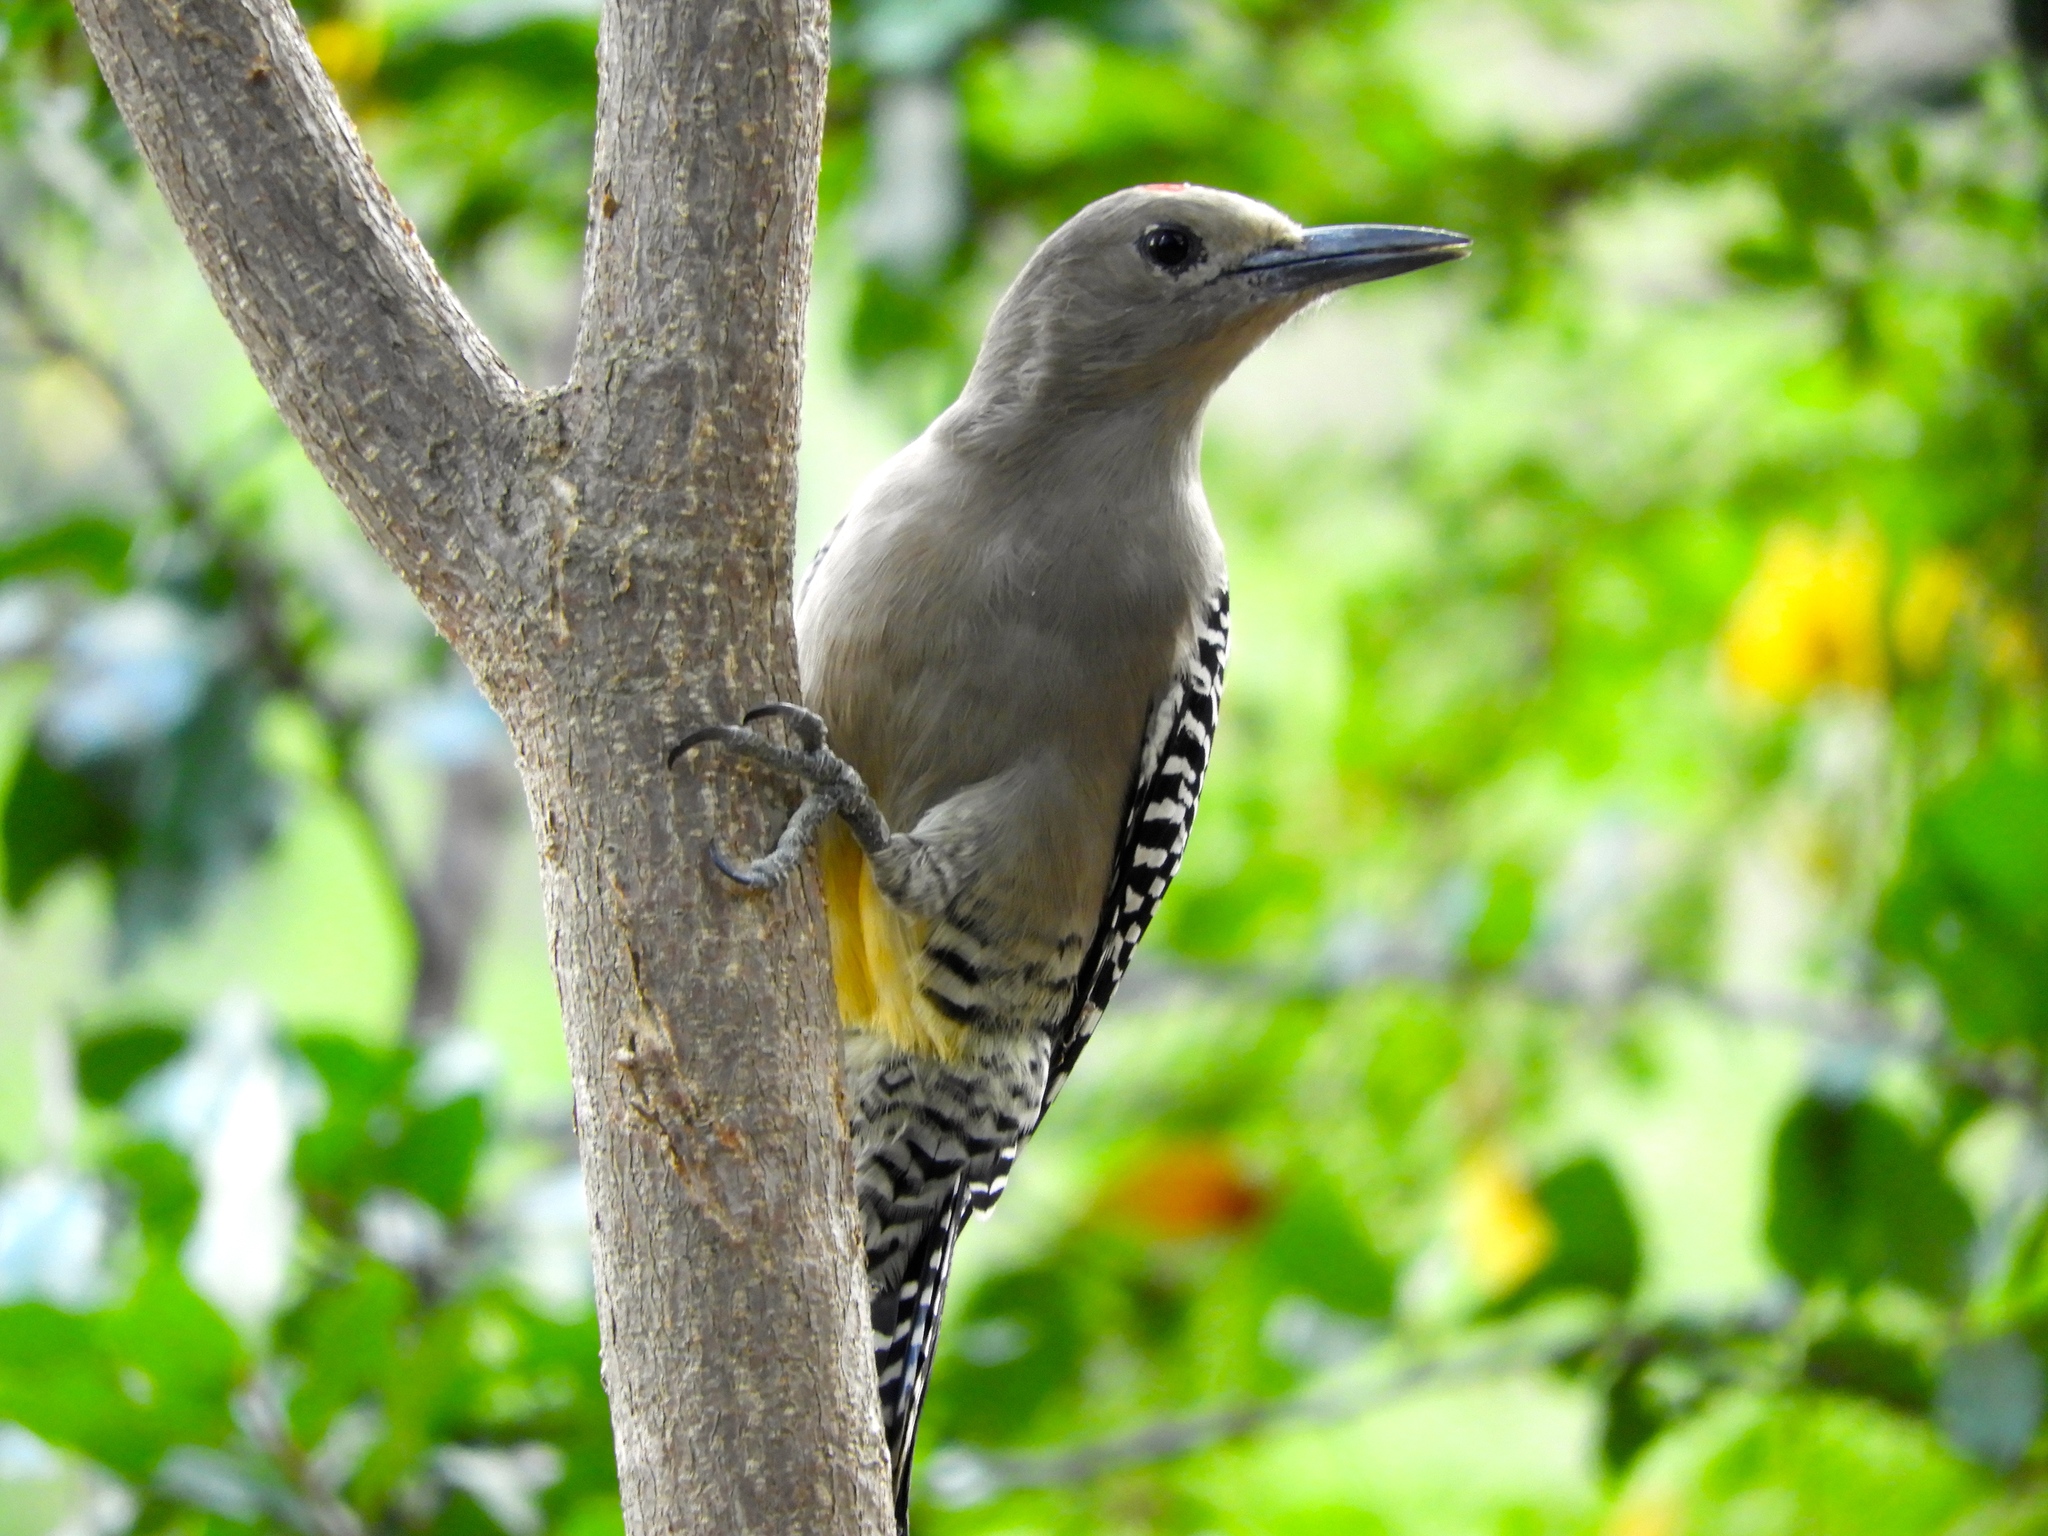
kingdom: Animalia
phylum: Chordata
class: Aves
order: Piciformes
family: Picidae
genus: Melanerpes
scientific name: Melanerpes uropygialis
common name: Gila woodpecker
